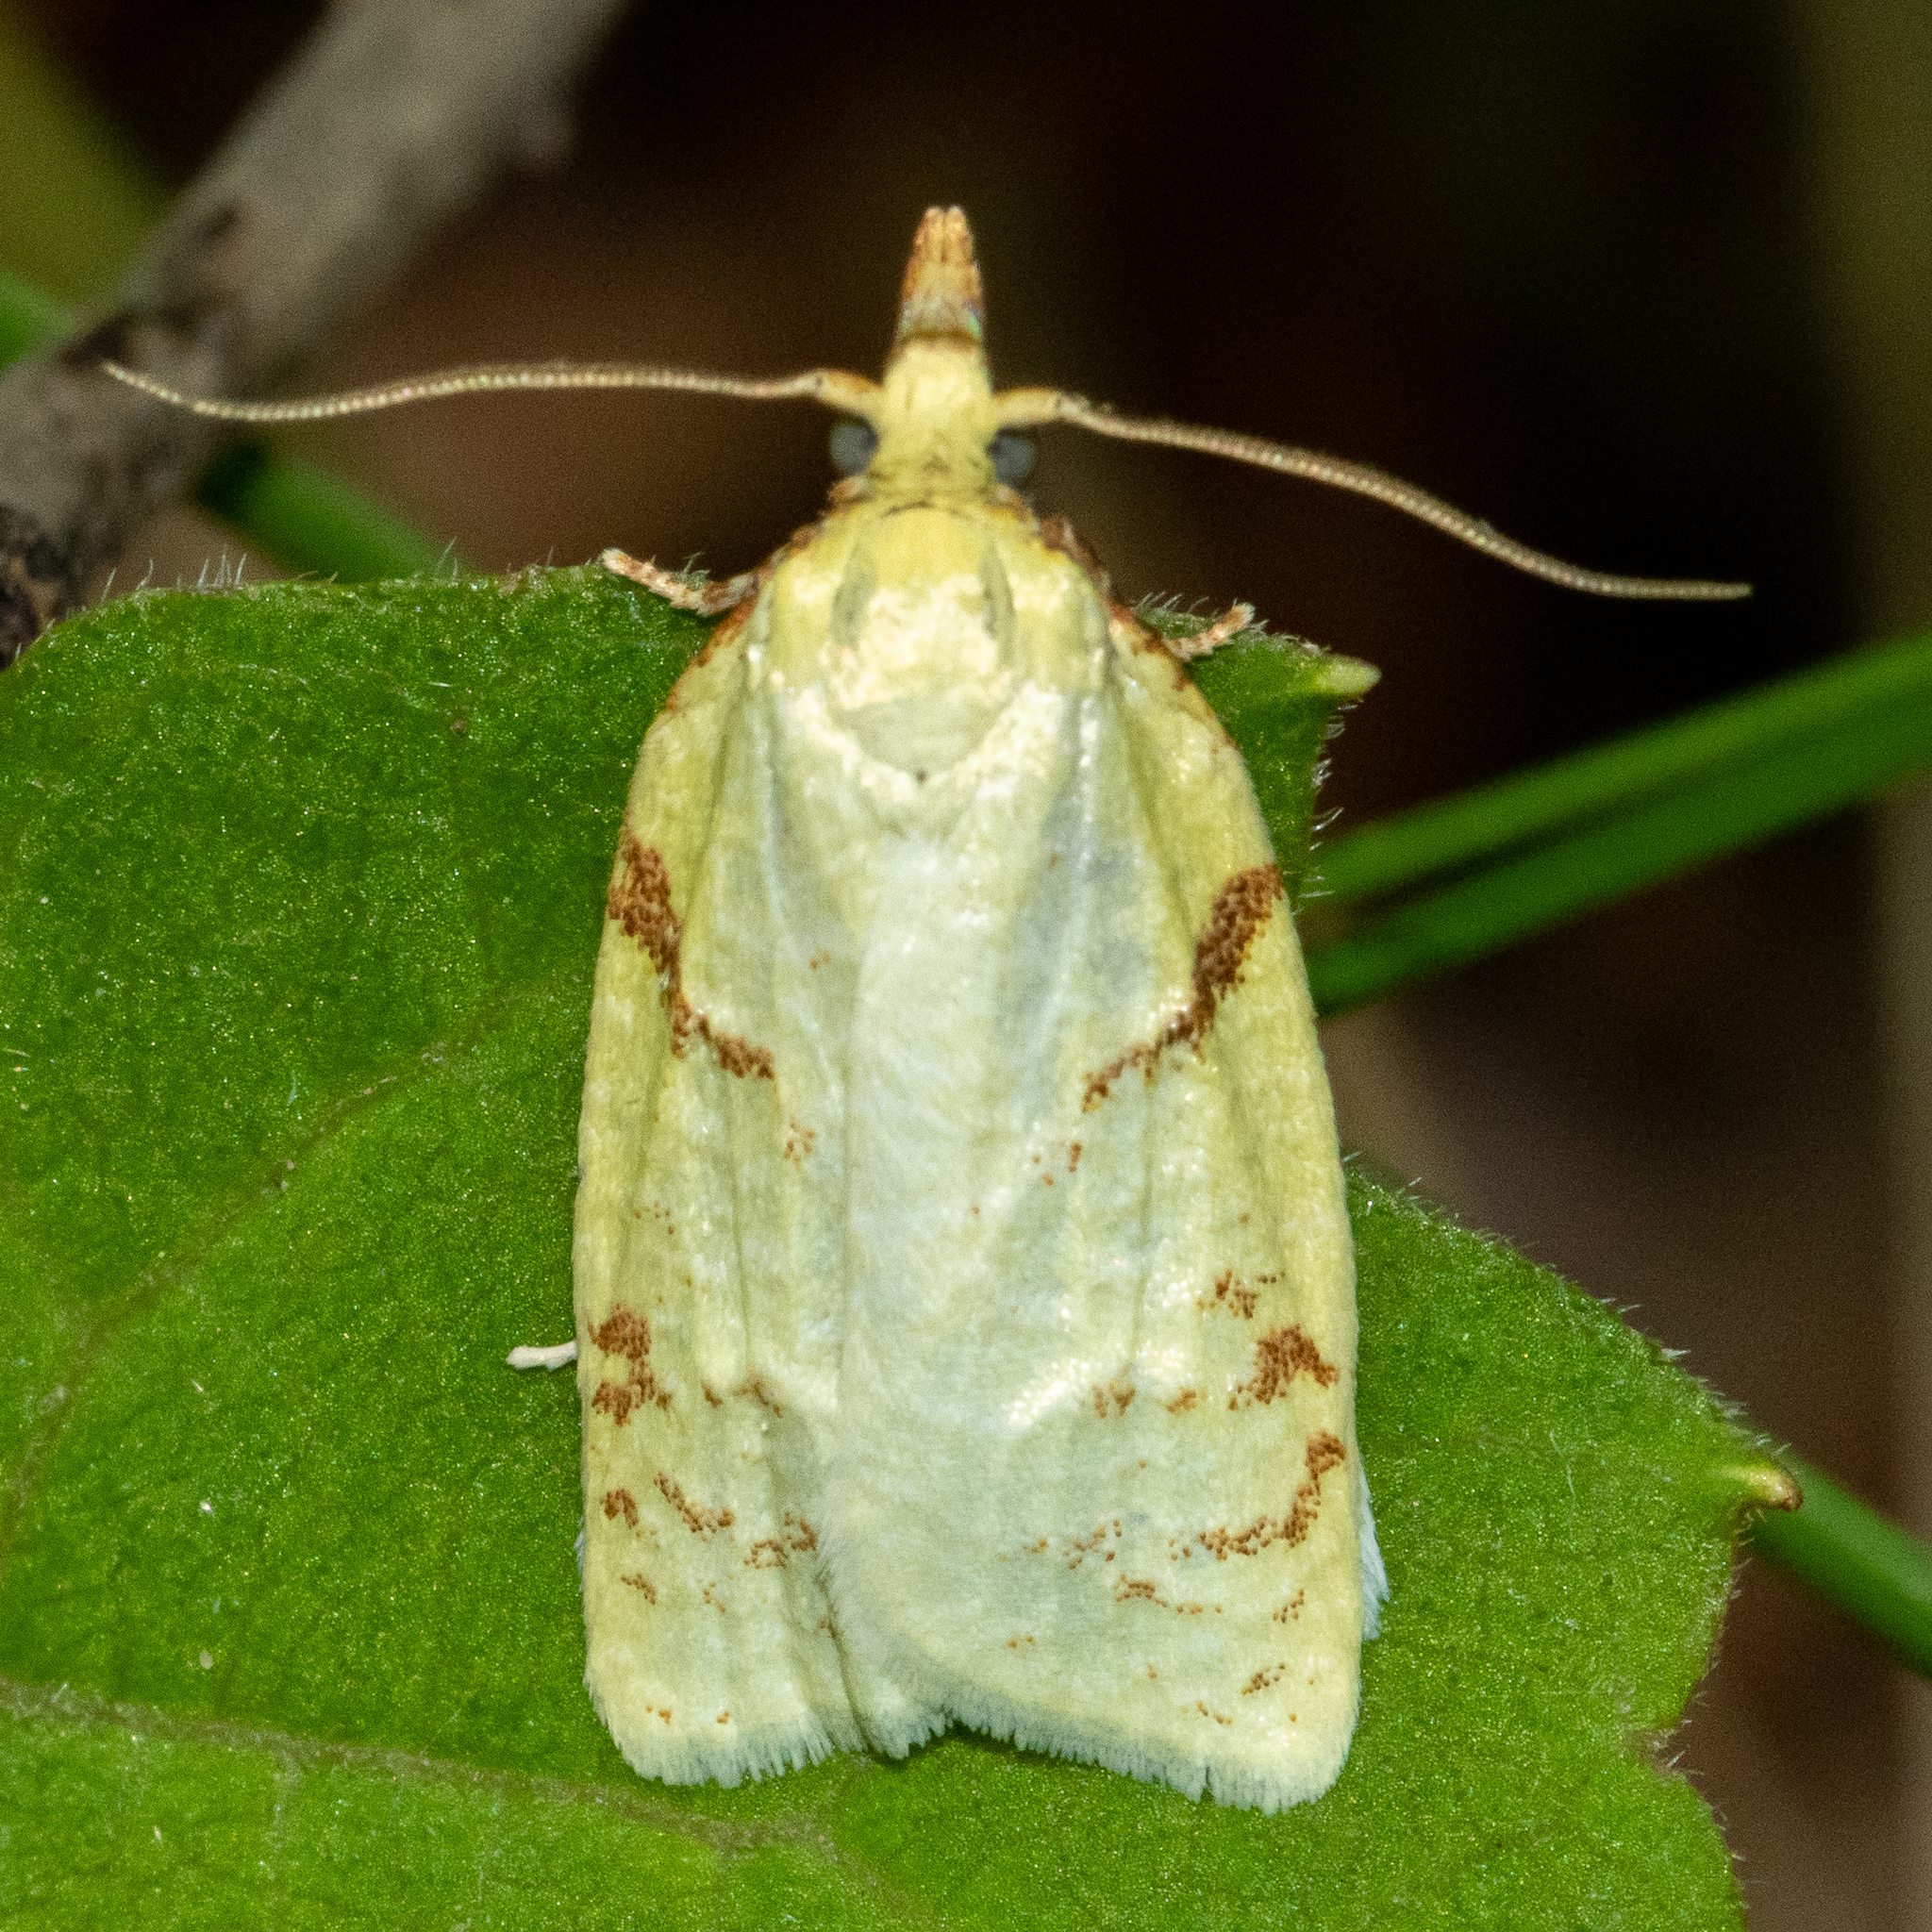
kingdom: Animalia
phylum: Arthropoda
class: Insecta
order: Lepidoptera
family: Tortricidae
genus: Cenopis
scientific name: Cenopis pettitana
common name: Maple-basswood leafroller moth
